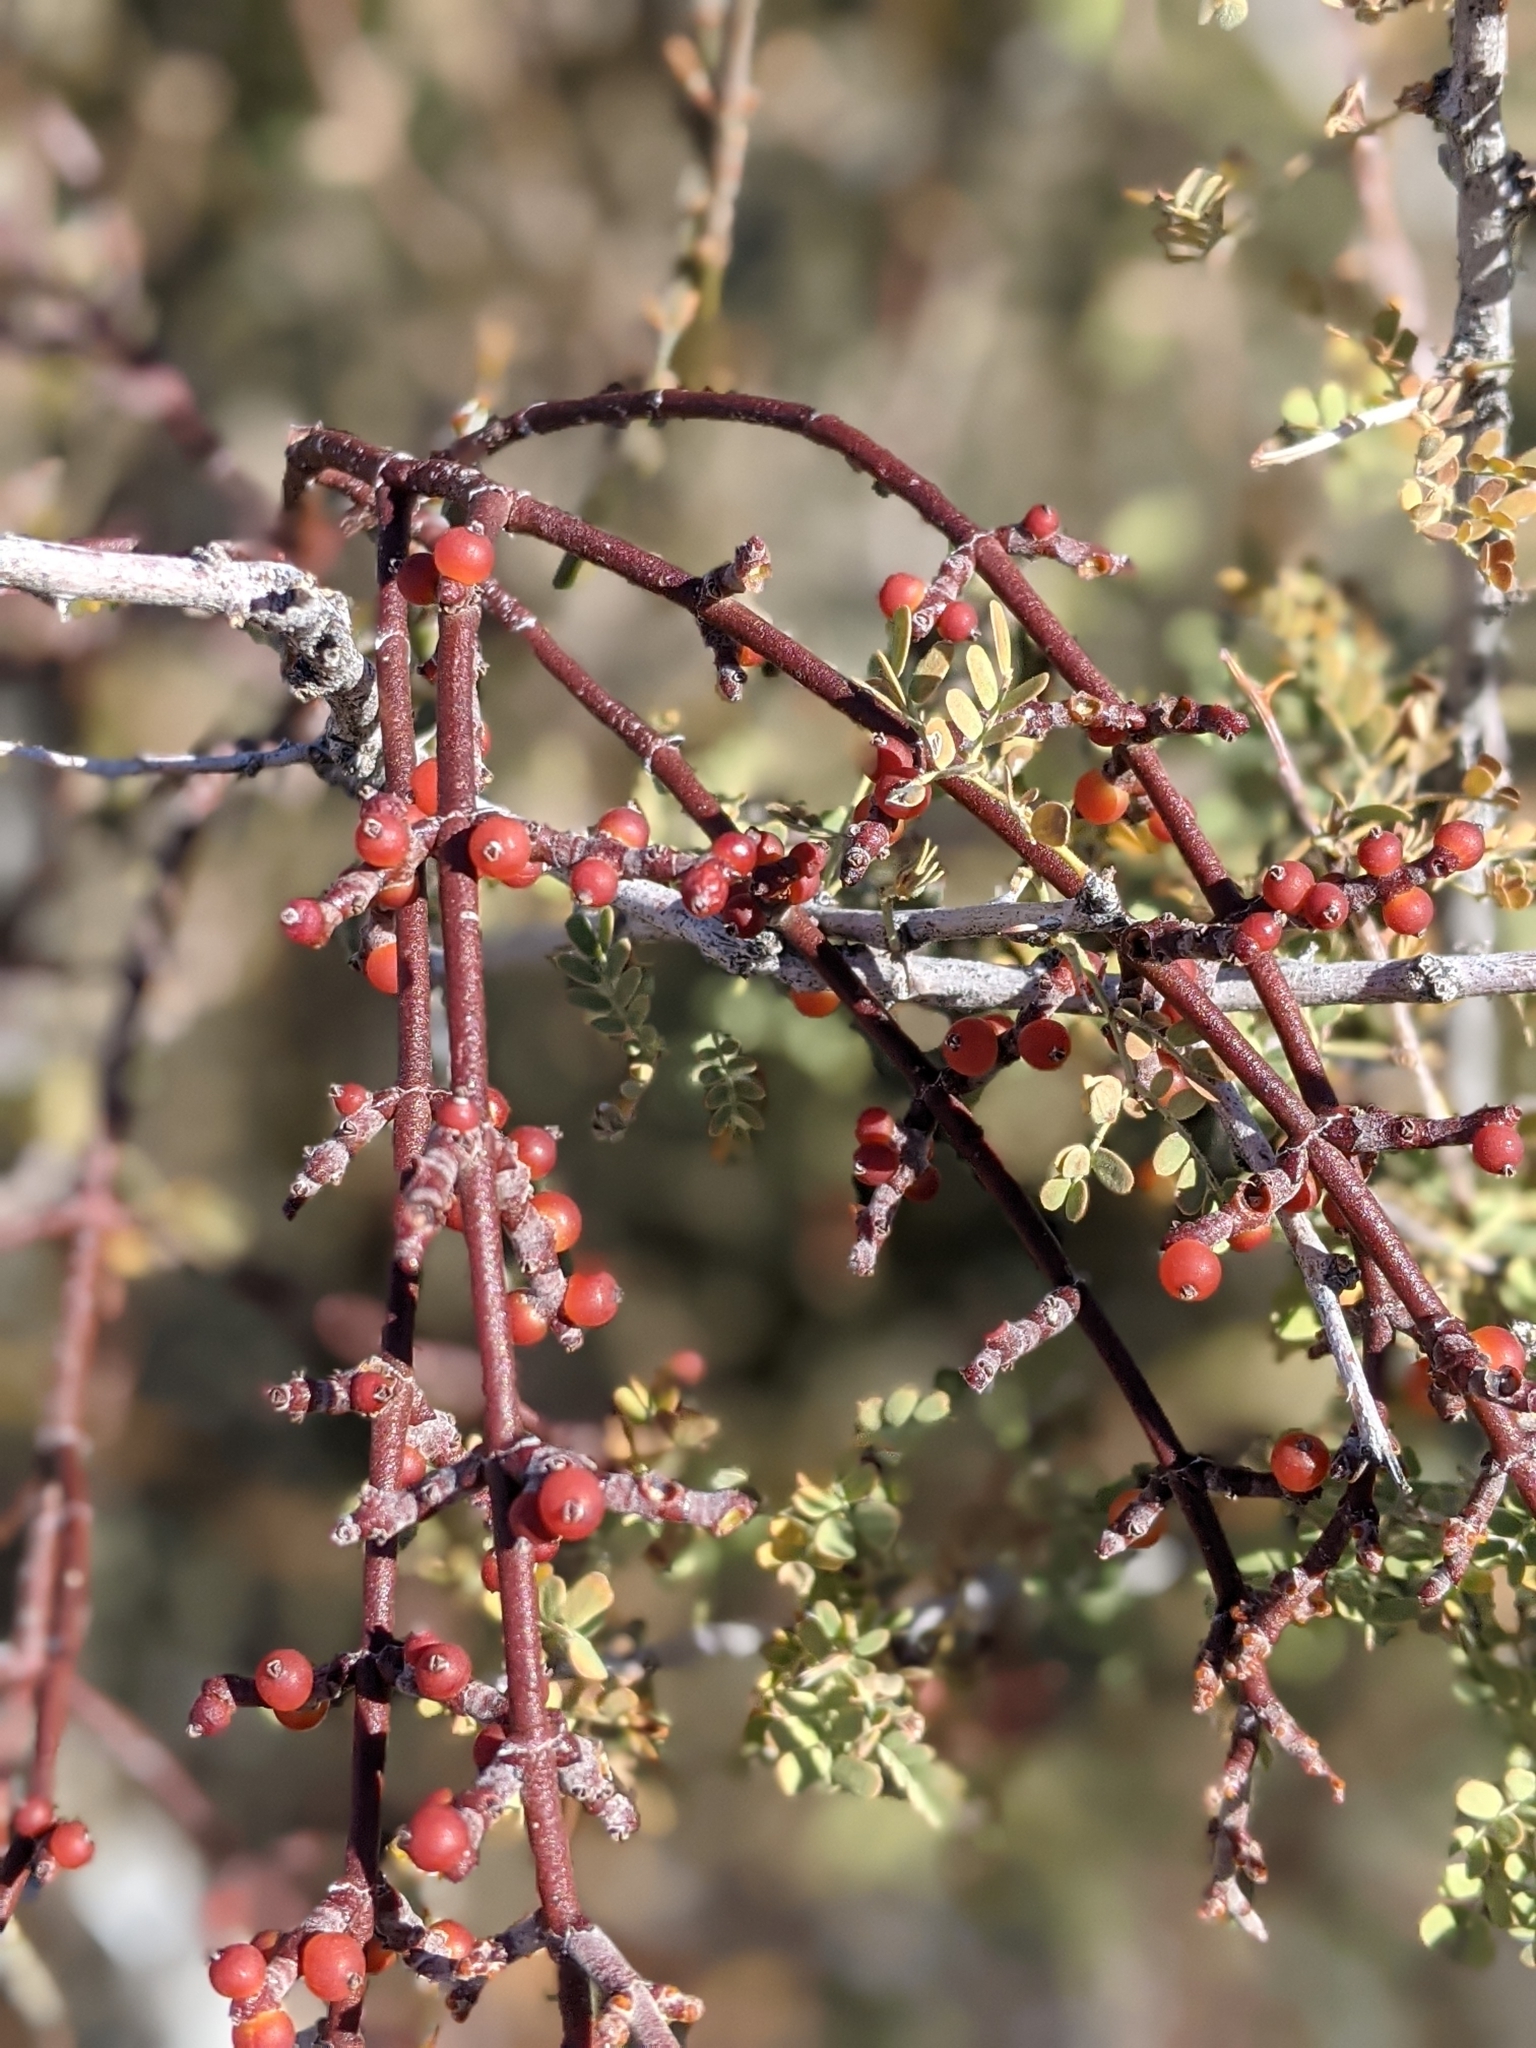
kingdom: Plantae
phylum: Tracheophyta
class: Magnoliopsida
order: Santalales
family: Viscaceae
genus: Phoradendron
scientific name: Phoradendron californicum
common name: Acacia mistletoe
